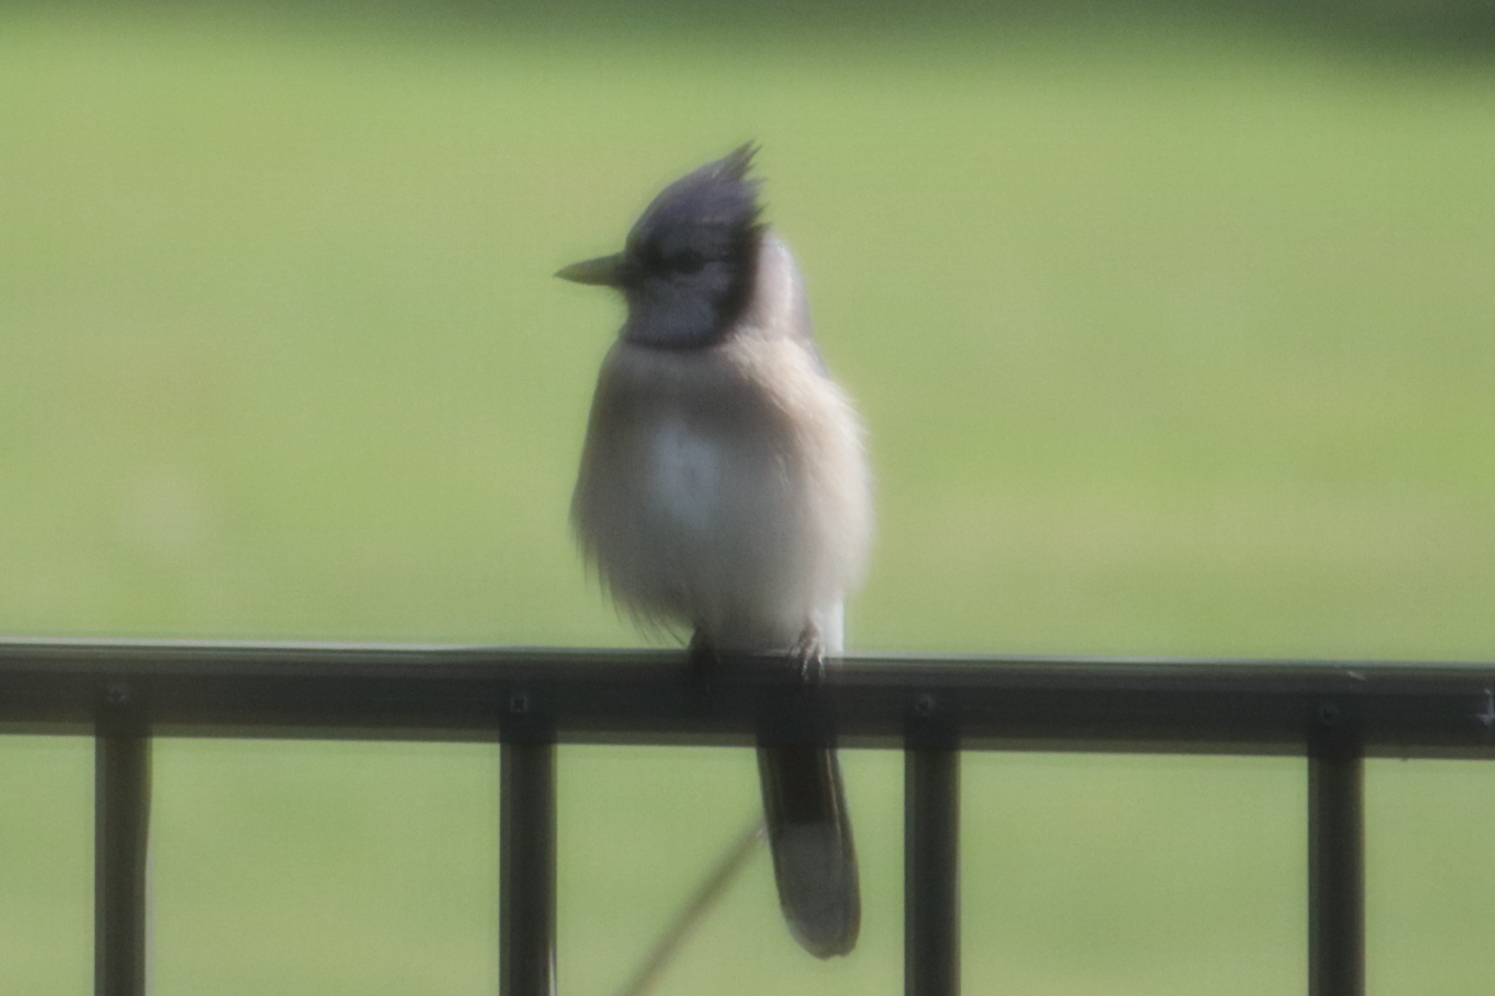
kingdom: Animalia
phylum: Chordata
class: Aves
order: Passeriformes
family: Corvidae
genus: Cyanocitta
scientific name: Cyanocitta cristata
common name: Blue jay
